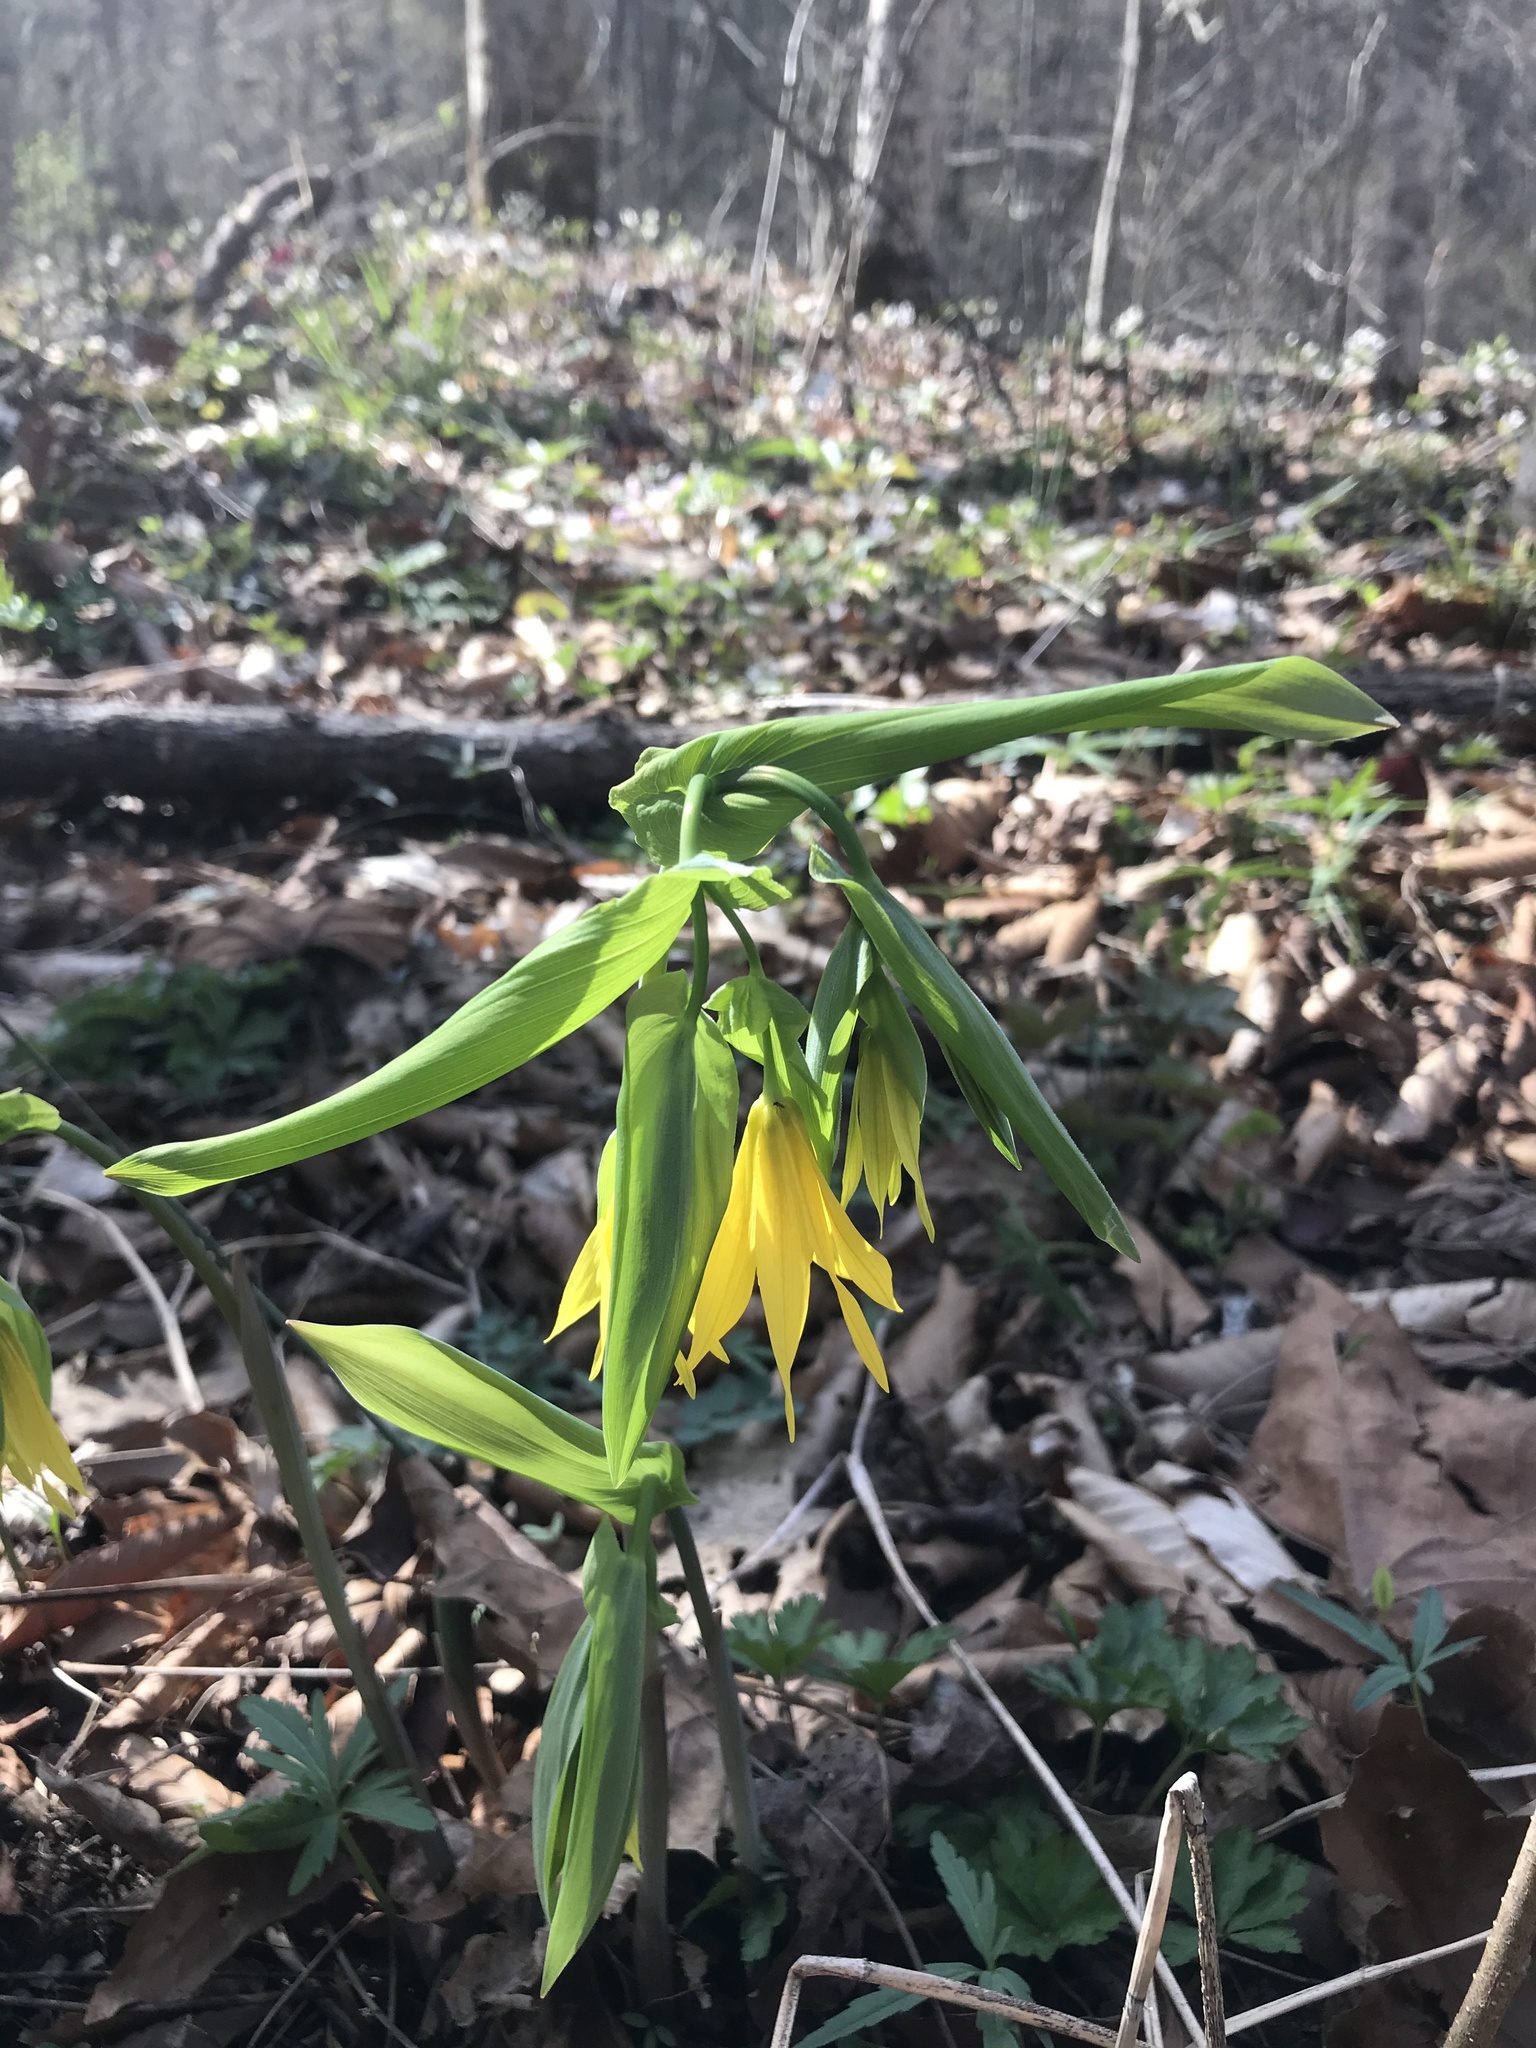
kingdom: Plantae
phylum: Tracheophyta
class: Liliopsida
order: Liliales
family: Colchicaceae
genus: Uvularia
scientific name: Uvularia grandiflora
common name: Bellwort
